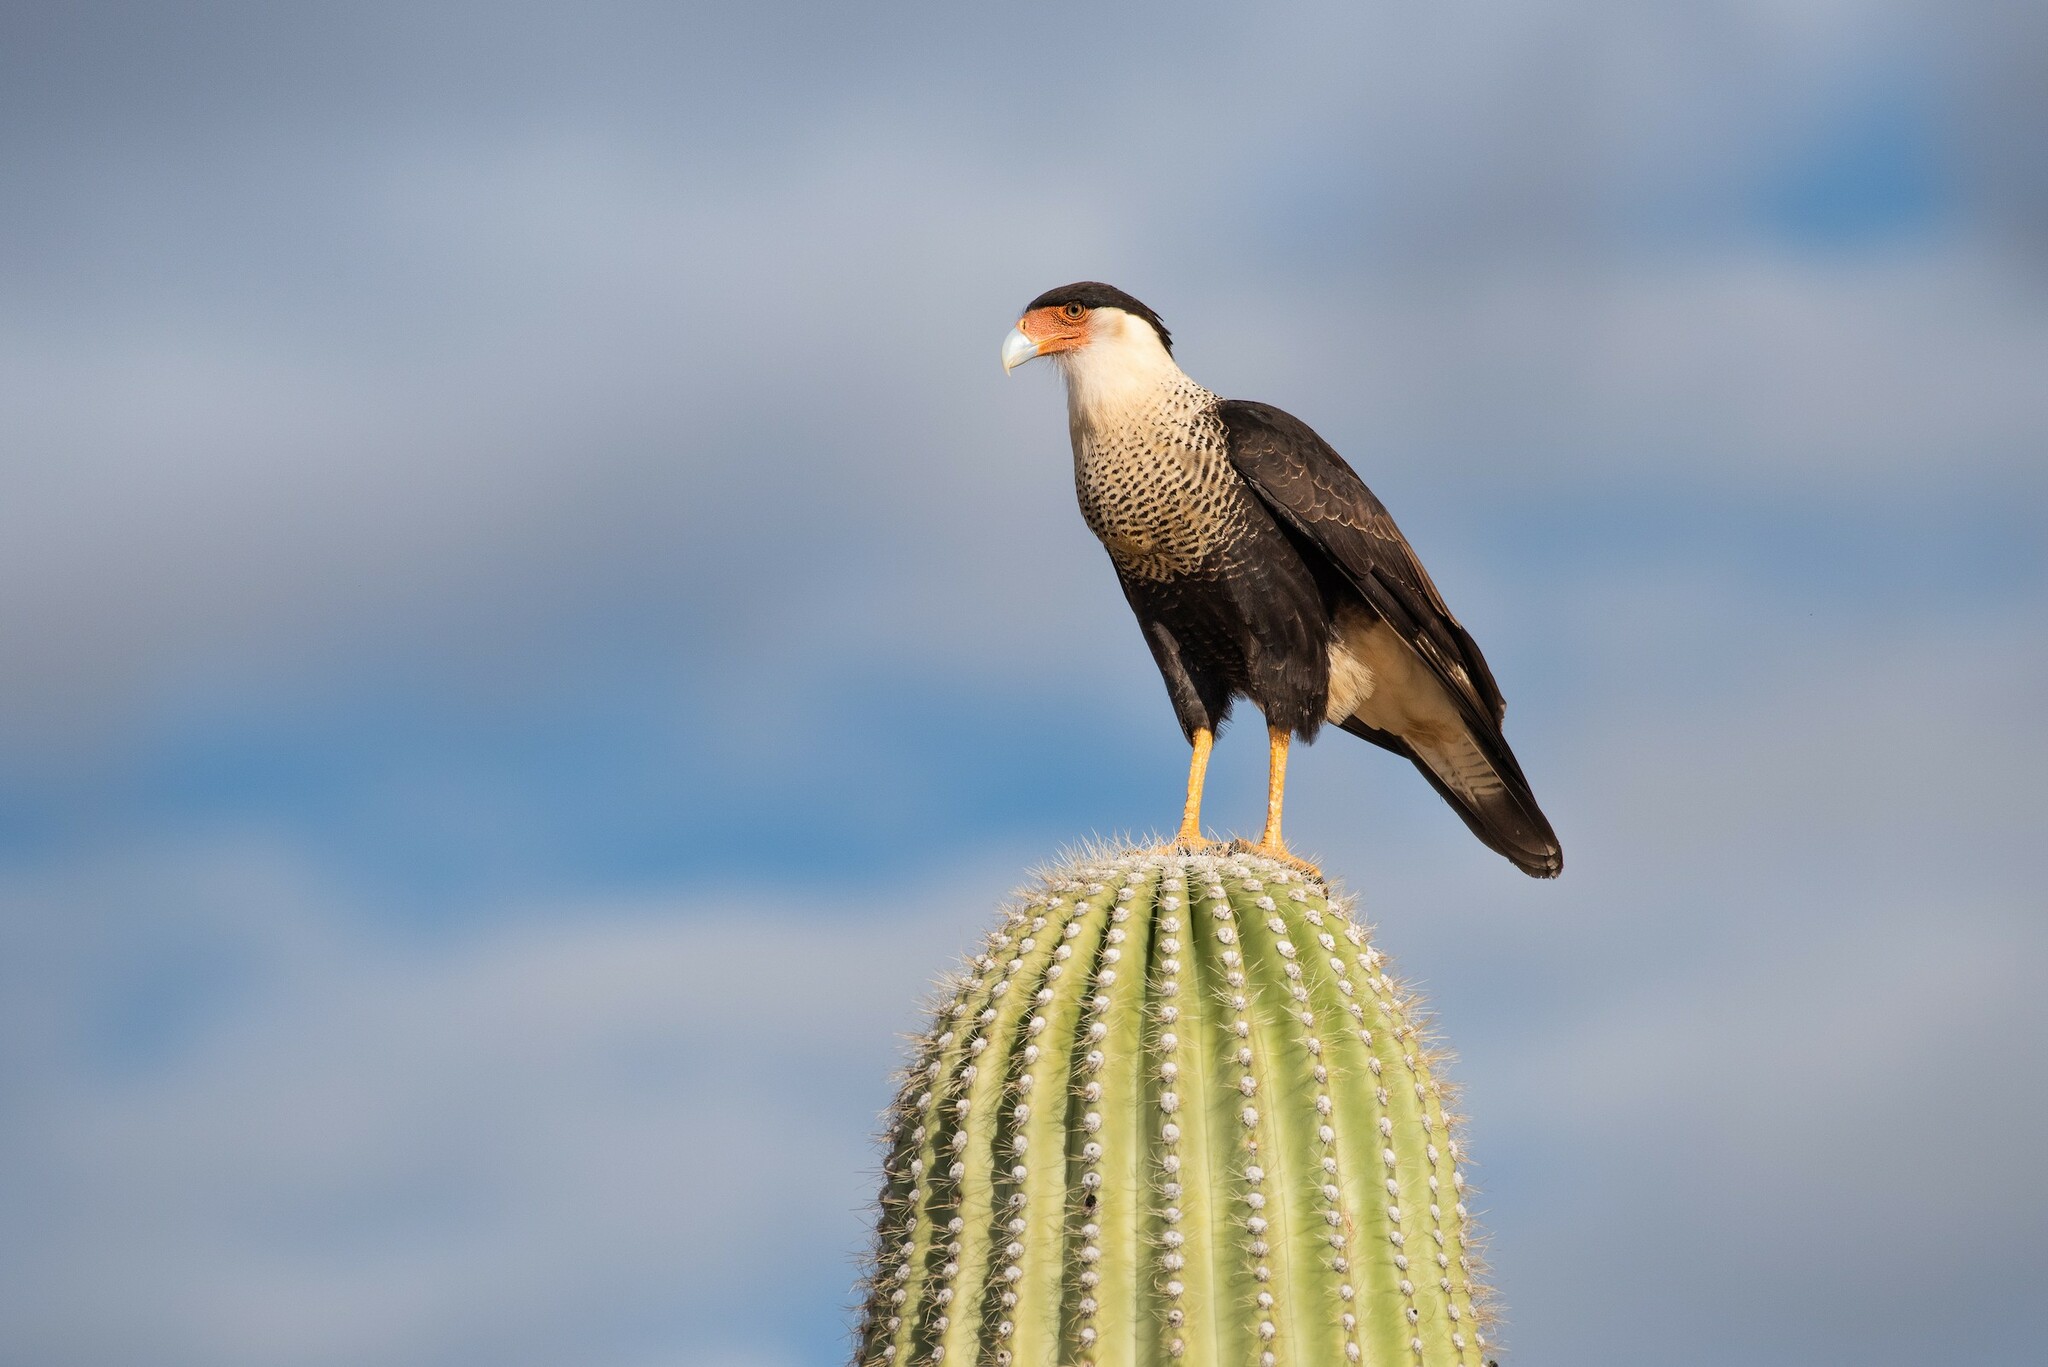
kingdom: Animalia
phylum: Chordata
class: Aves
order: Falconiformes
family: Falconidae
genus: Caracara
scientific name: Caracara plancus
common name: Southern caracara
